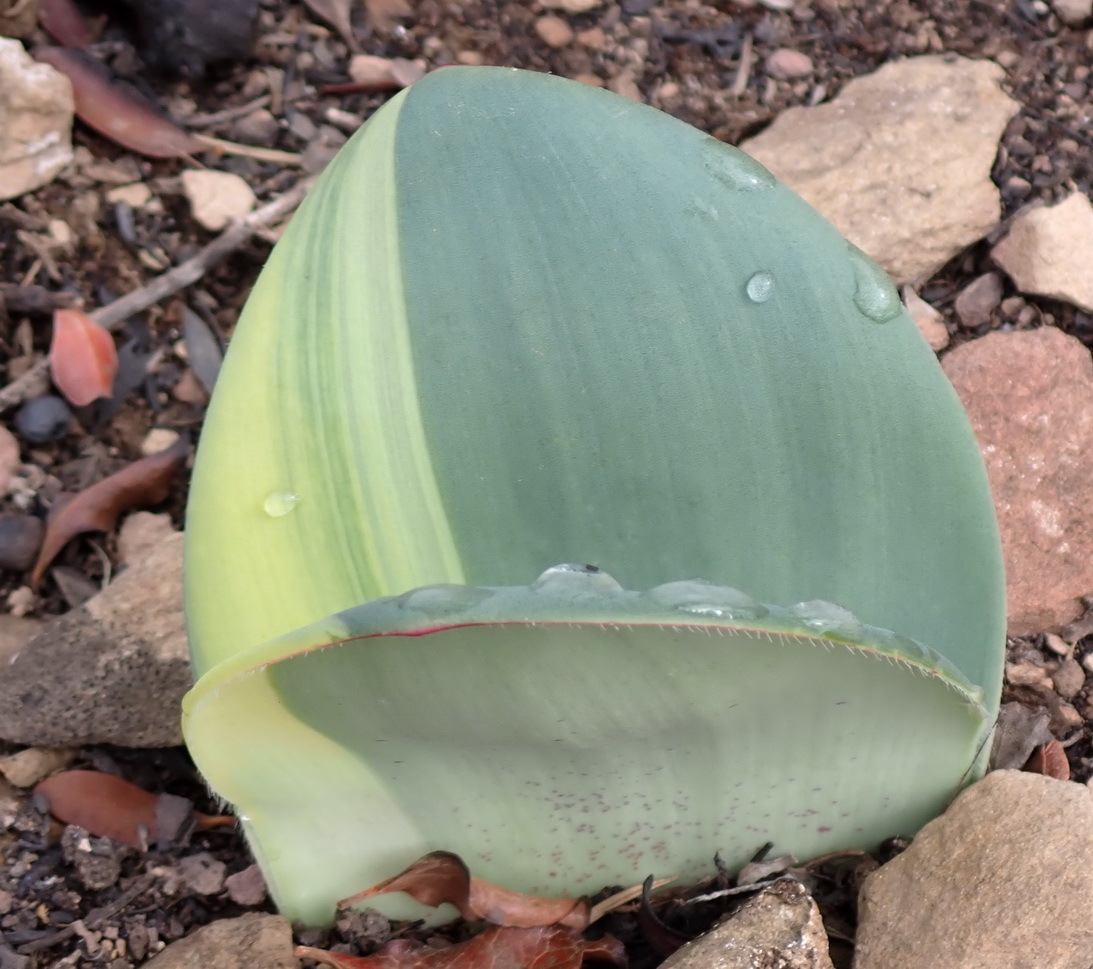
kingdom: Plantae
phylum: Tracheophyta
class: Liliopsida
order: Asparagales
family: Amaryllidaceae
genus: Haemanthus
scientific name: Haemanthus coccineus
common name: Cape-tulip
